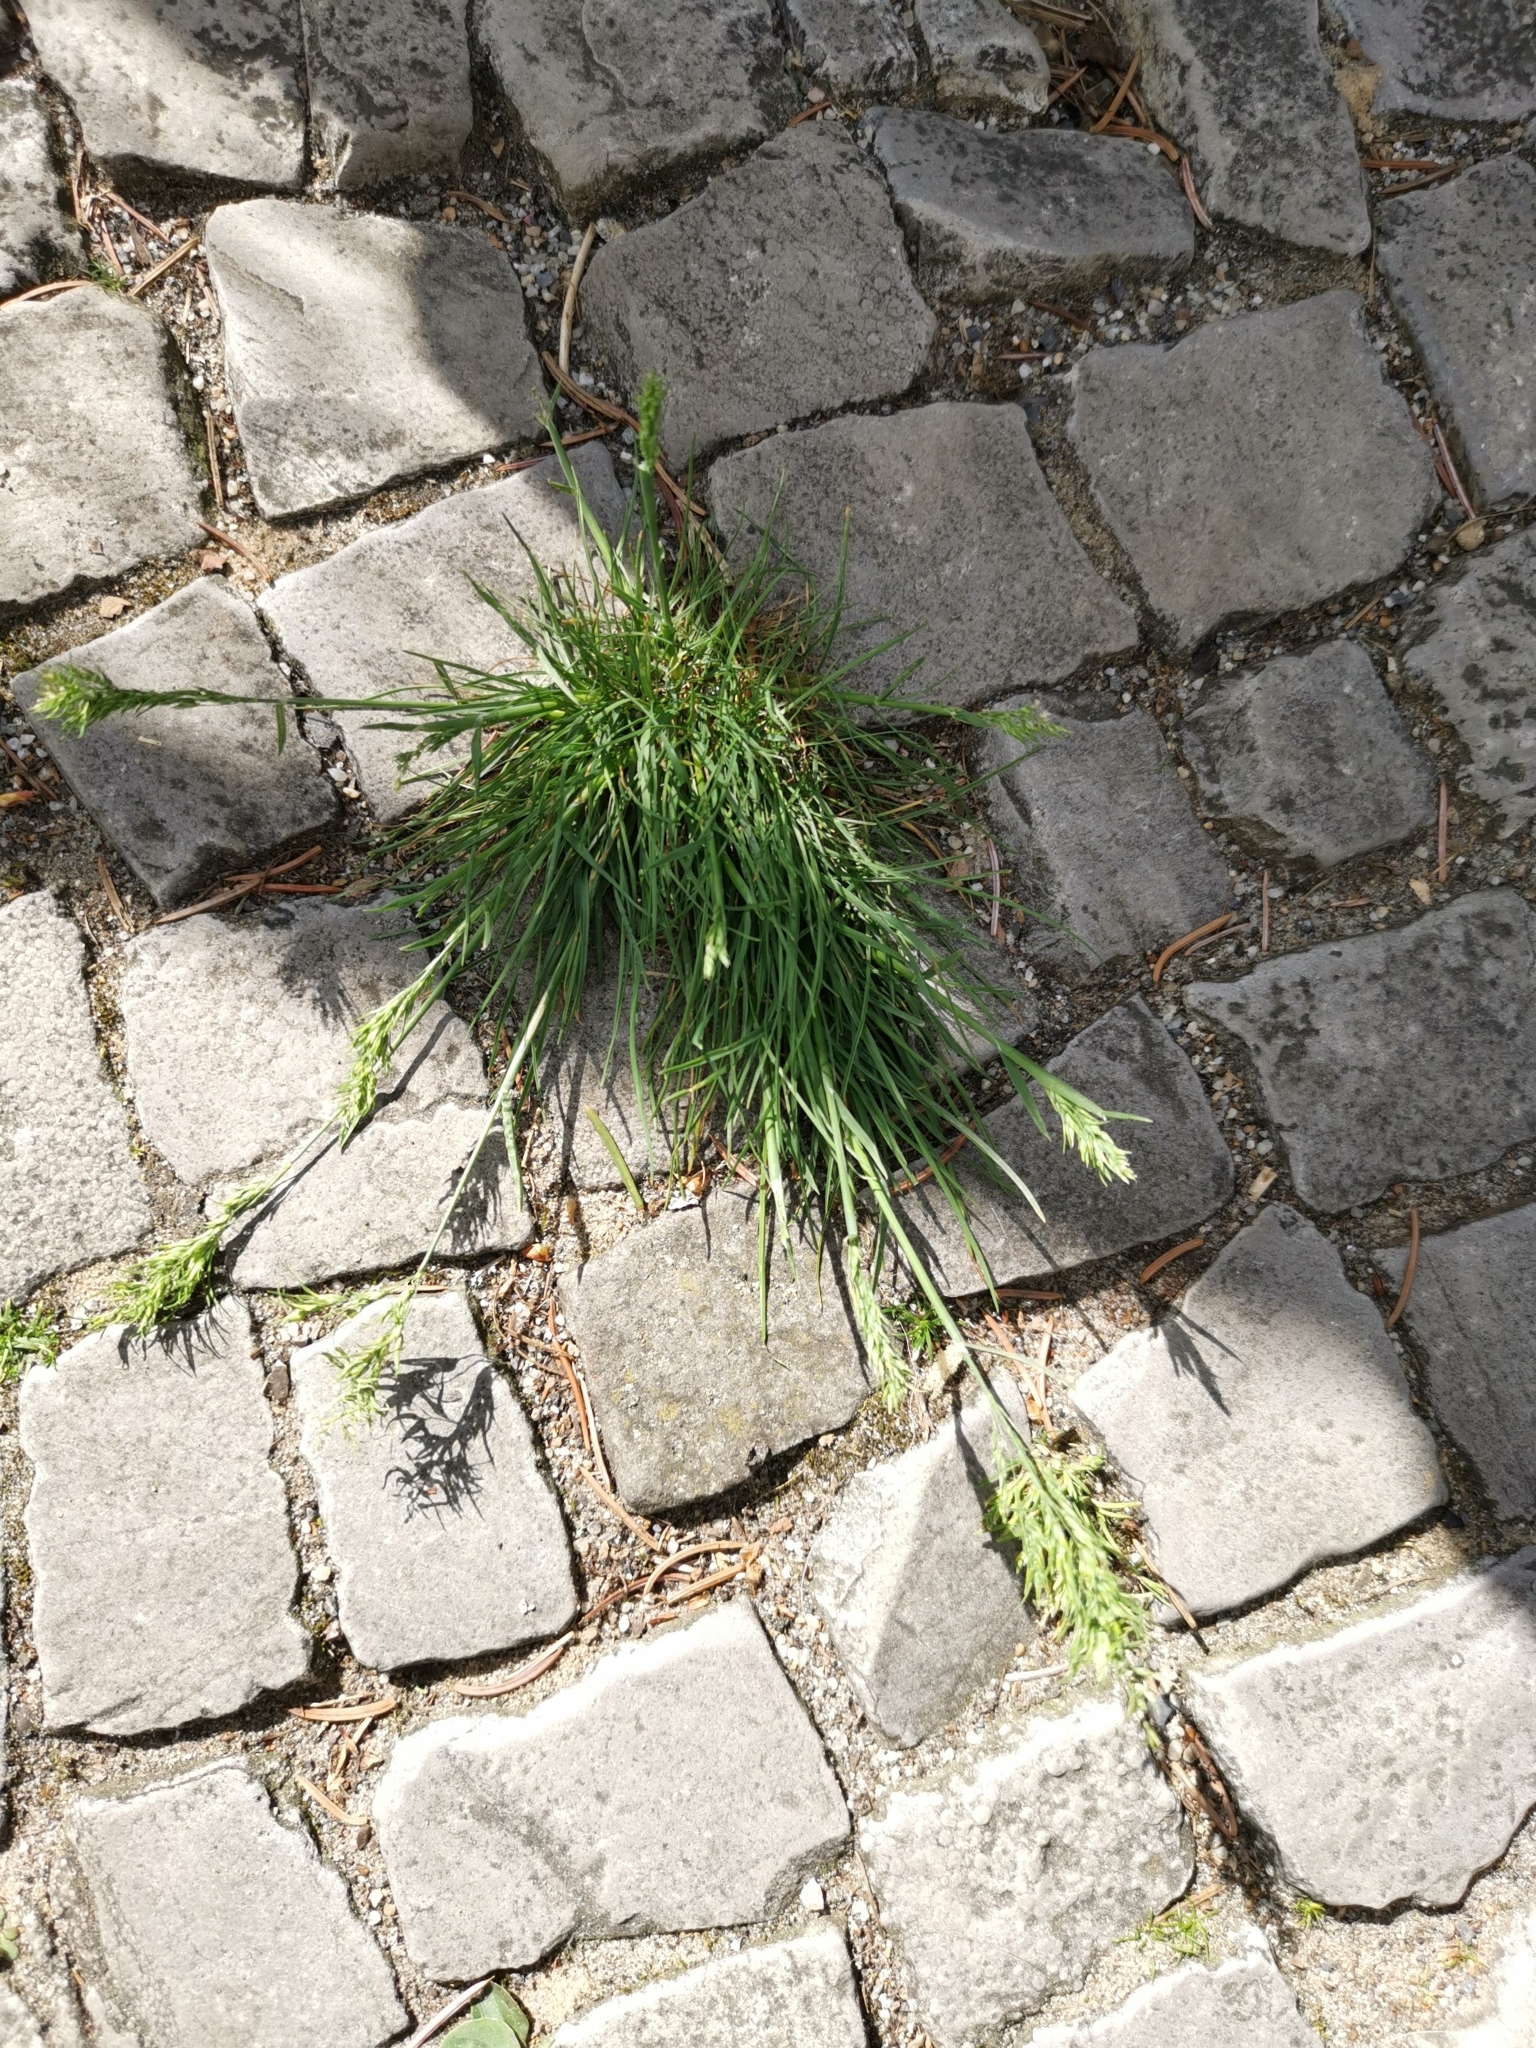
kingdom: Plantae
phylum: Tracheophyta
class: Liliopsida
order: Poales
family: Poaceae
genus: Poa
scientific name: Poa bulbosa
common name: Bulbous bluegrass
